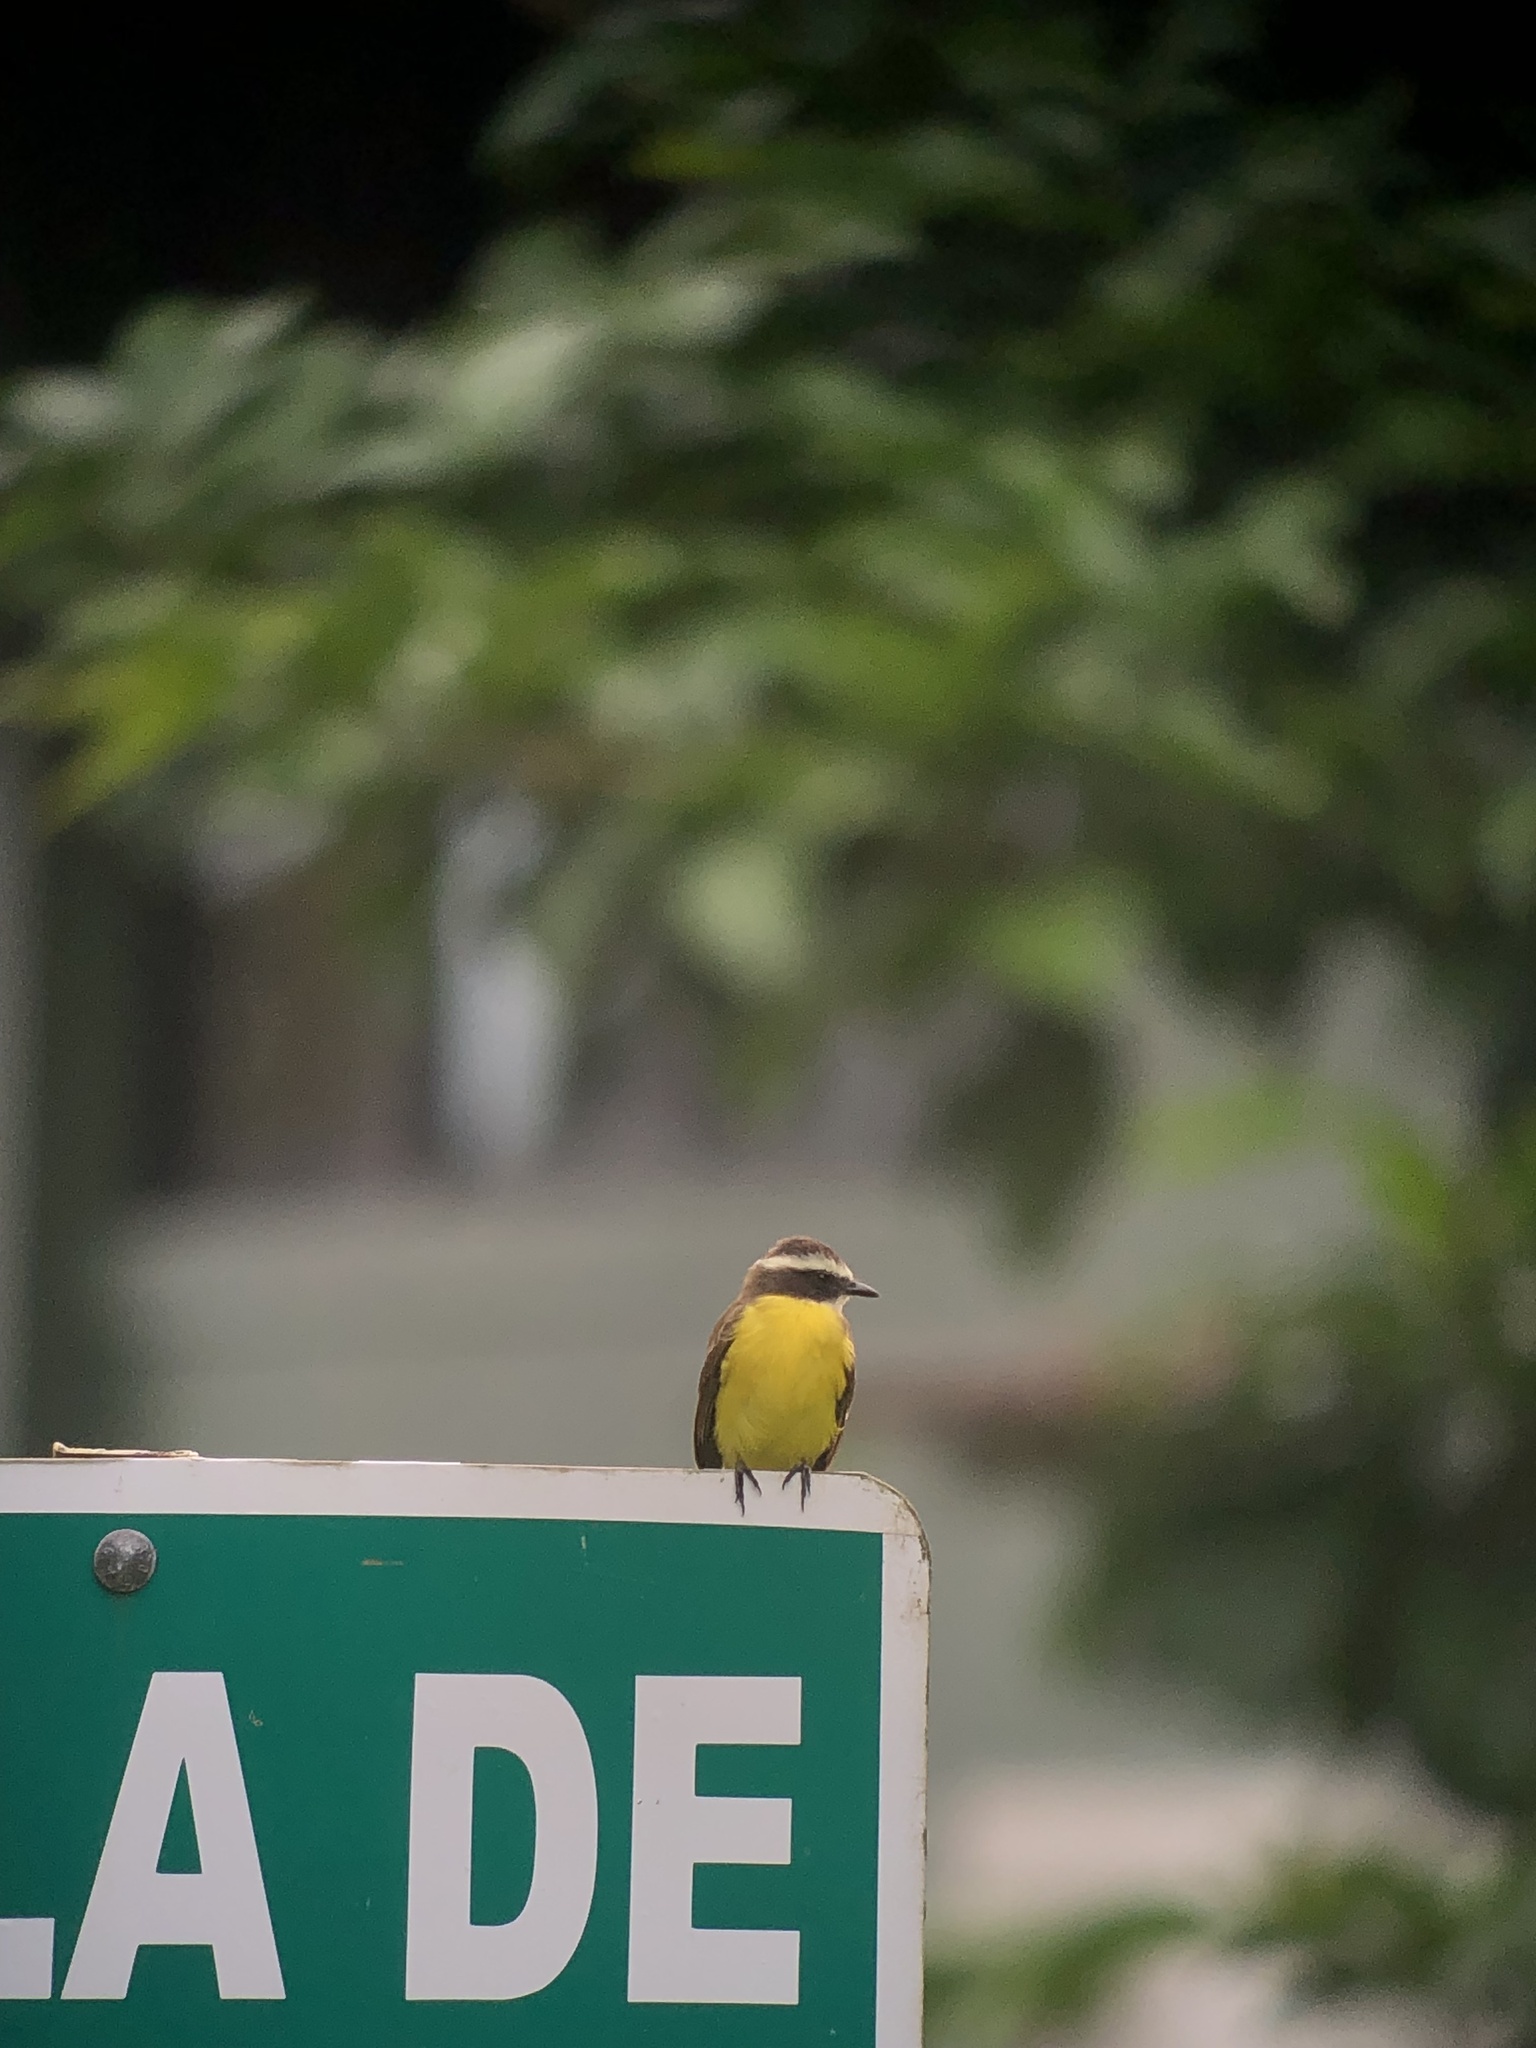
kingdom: Animalia
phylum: Chordata
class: Aves
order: Passeriformes
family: Tyrannidae
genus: Myiozetetes
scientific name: Myiozetetes cayanensis
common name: Rusty-margined flycatcher
